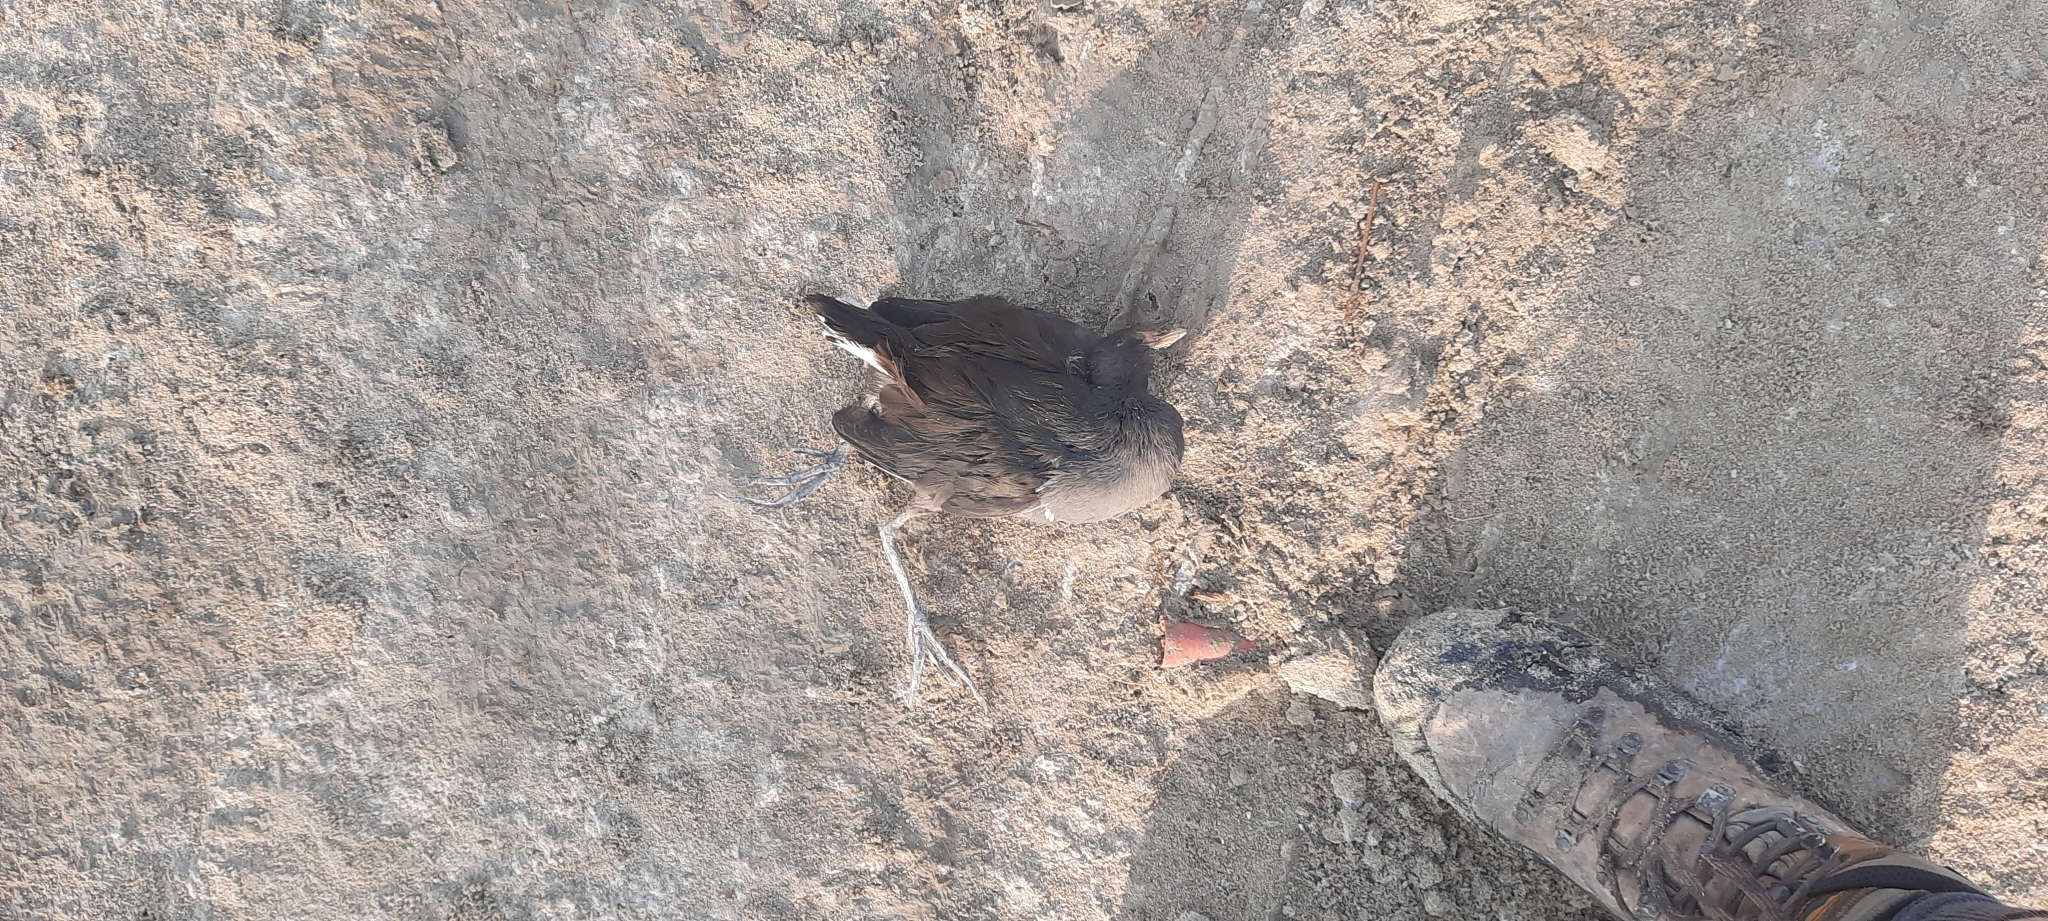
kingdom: Animalia
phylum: Chordata
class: Aves
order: Gruiformes
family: Rallidae
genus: Gallinula
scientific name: Gallinula chloropus
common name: Common moorhen
